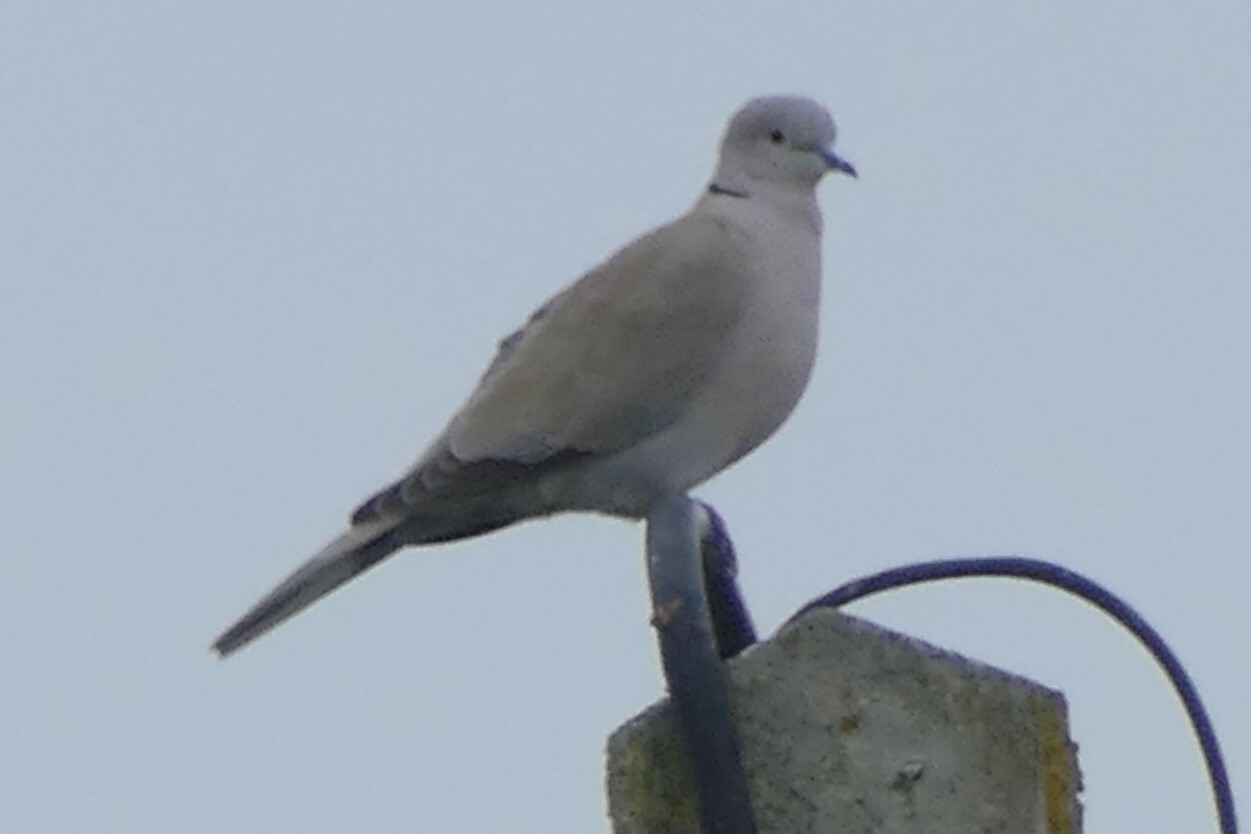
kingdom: Animalia
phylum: Chordata
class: Aves
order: Columbiformes
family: Columbidae
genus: Streptopelia
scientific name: Streptopelia decaocto
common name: Eurasian collared dove
